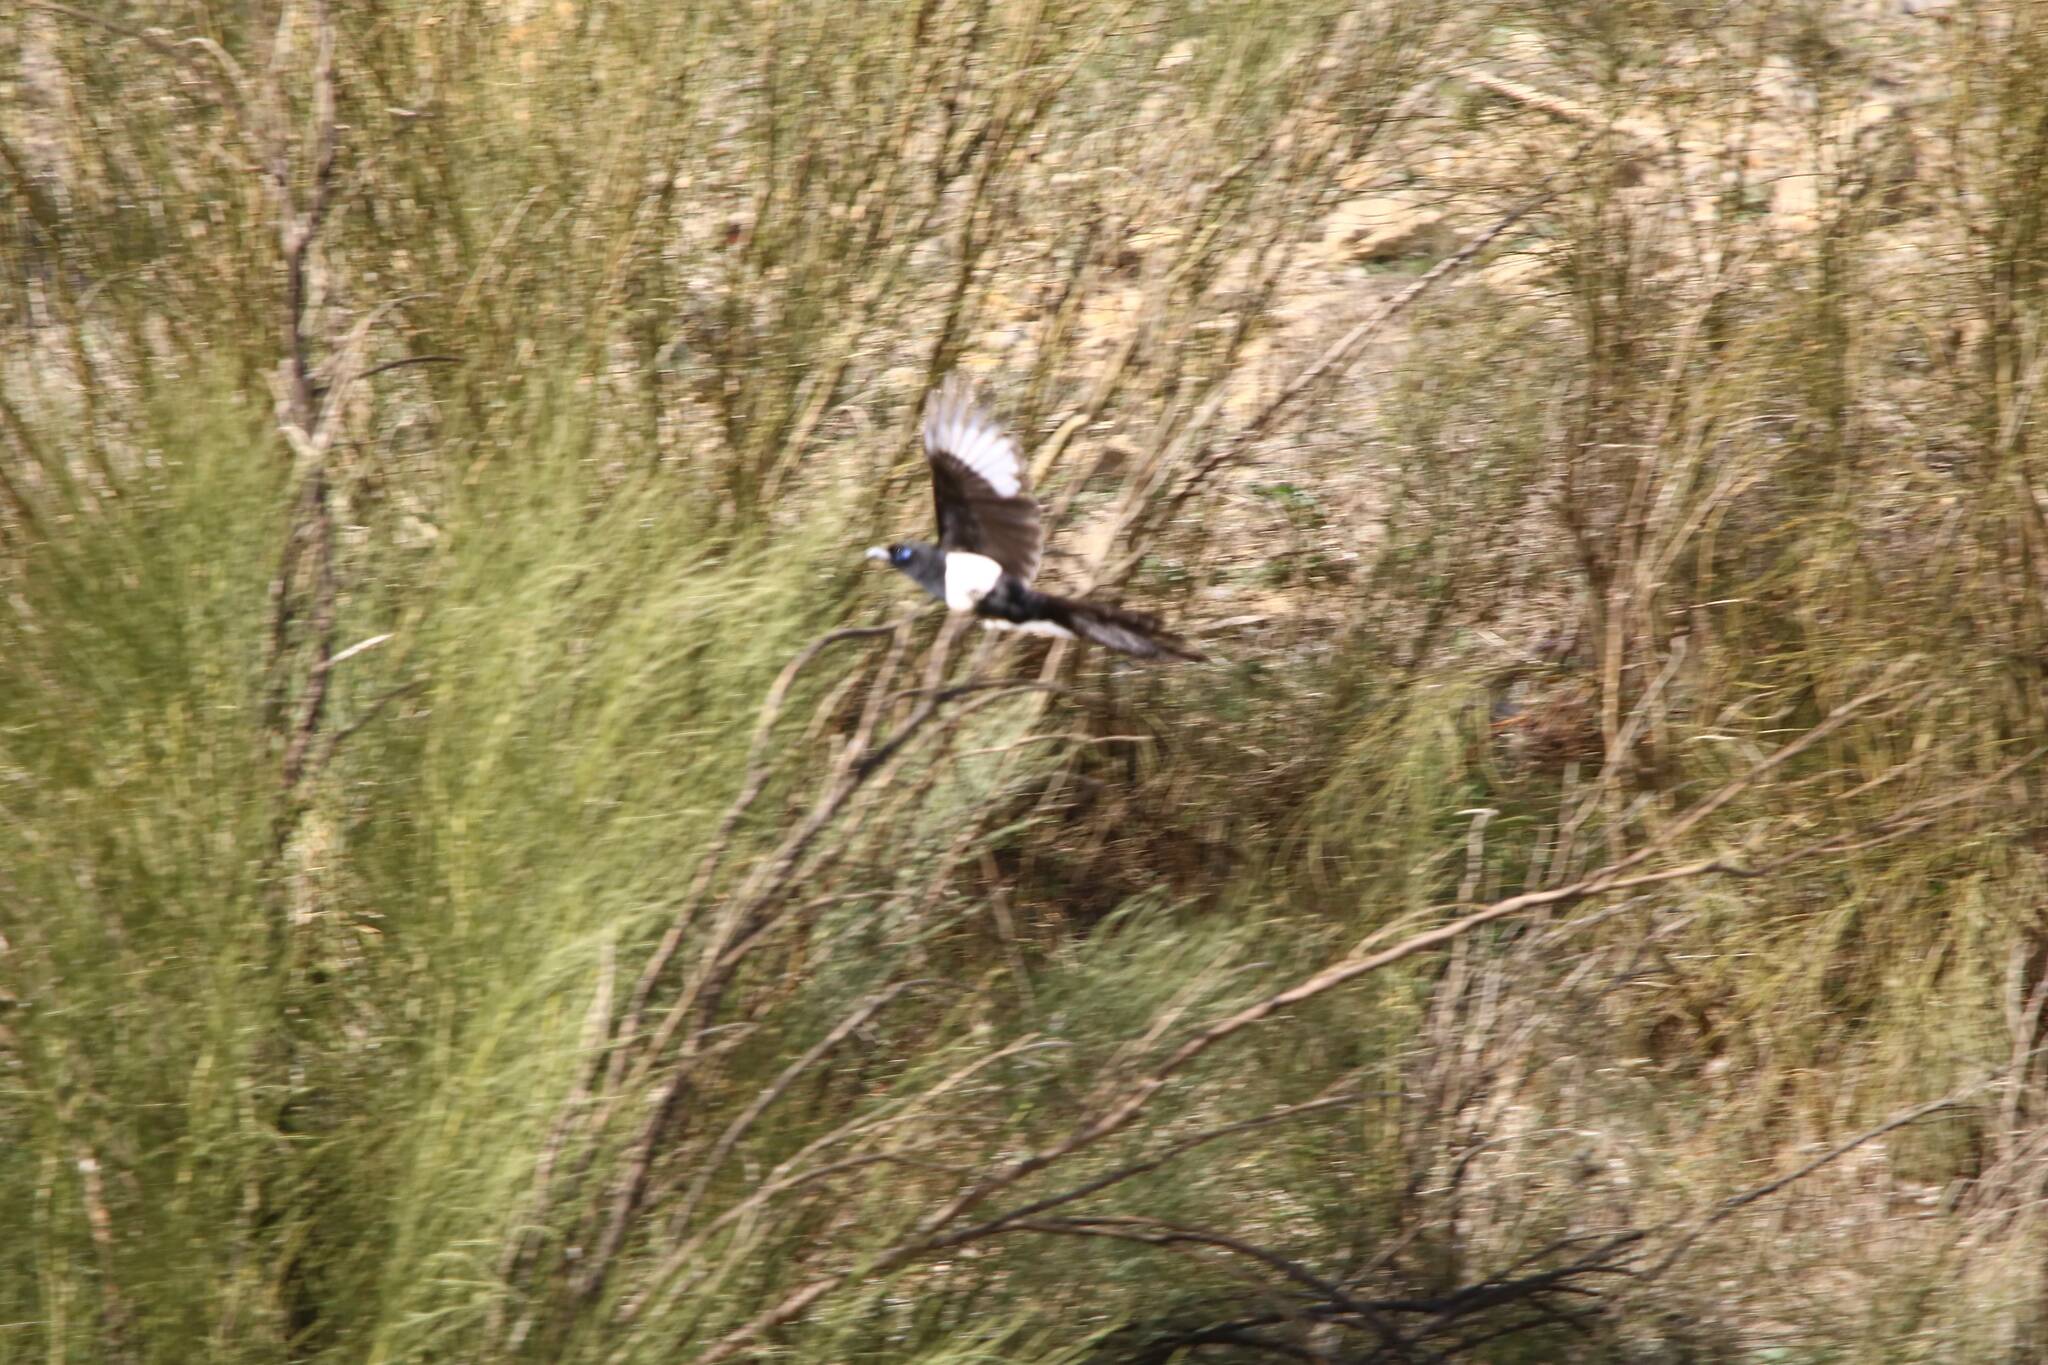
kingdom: Animalia
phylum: Chordata
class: Aves
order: Passeriformes
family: Corvidae
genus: Pica
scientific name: Pica mauritanica
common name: Maghreb magpie
